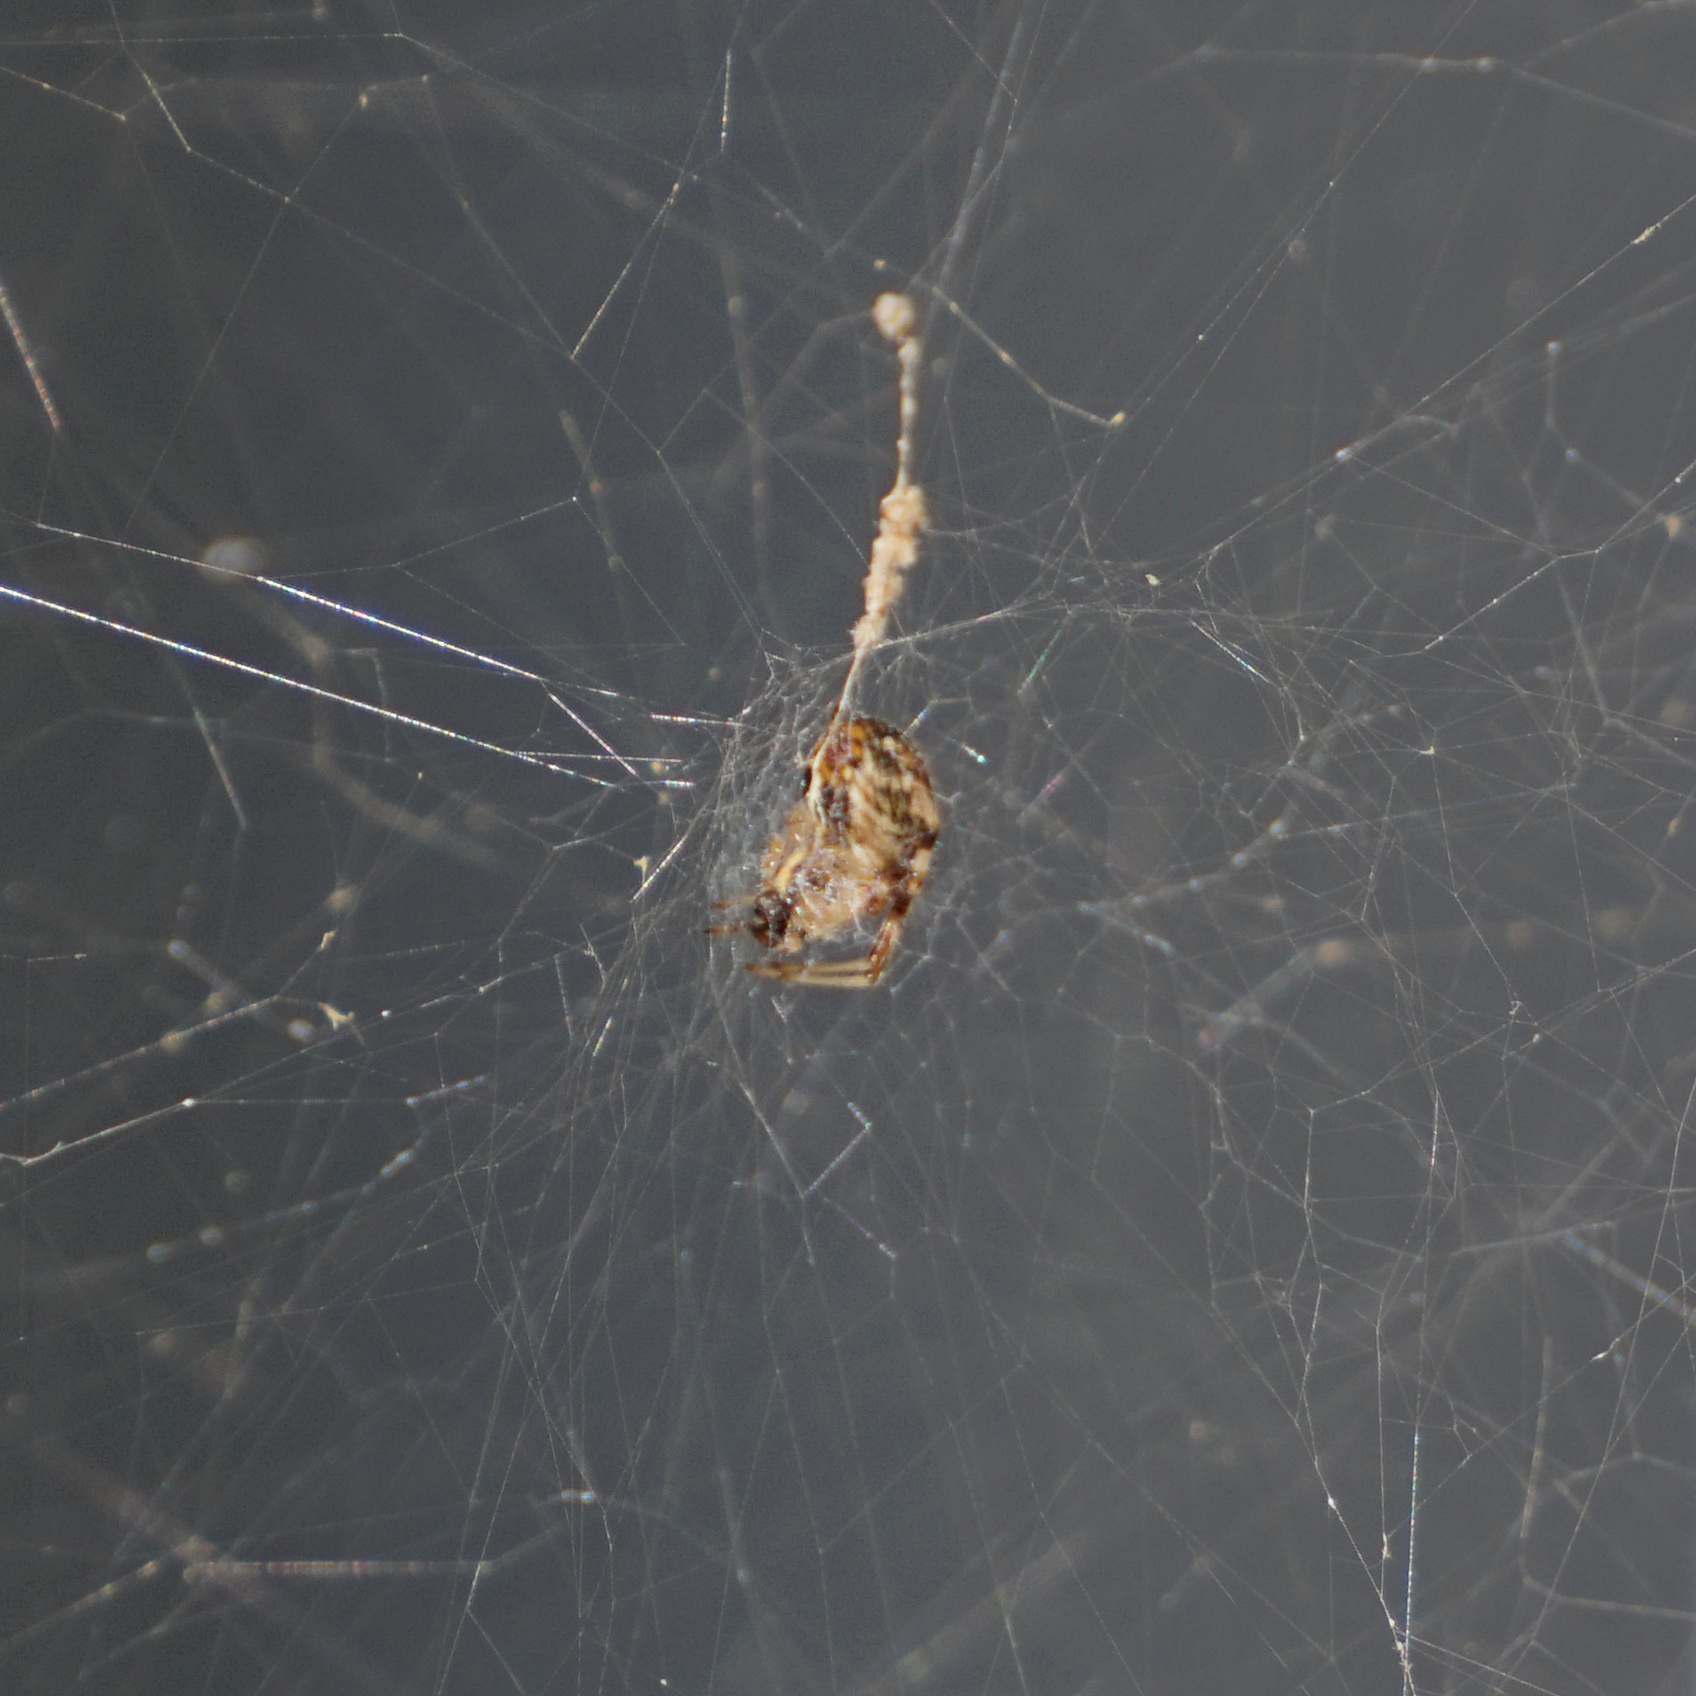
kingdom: Animalia
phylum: Arthropoda
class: Arachnida
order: Araneae
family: Araneidae
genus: Metepeira
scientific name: Metepeira labyrinthea
